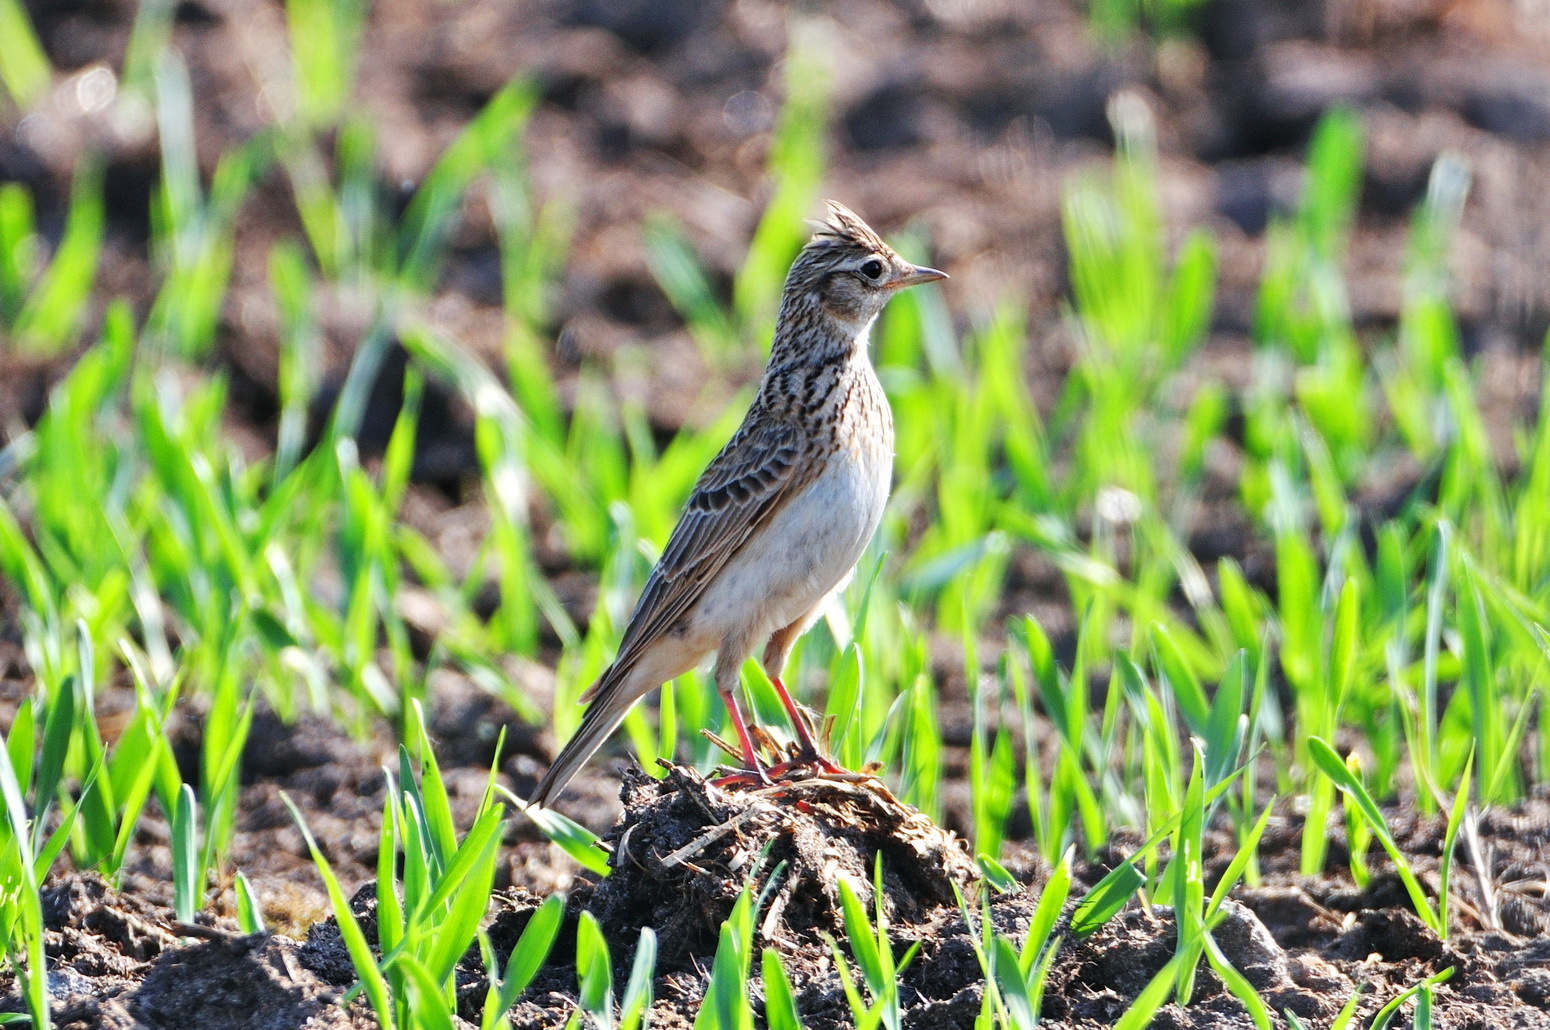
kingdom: Animalia
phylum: Chordata
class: Aves
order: Passeriformes
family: Alaudidae
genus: Alauda
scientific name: Alauda arvensis
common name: Eurasian skylark
